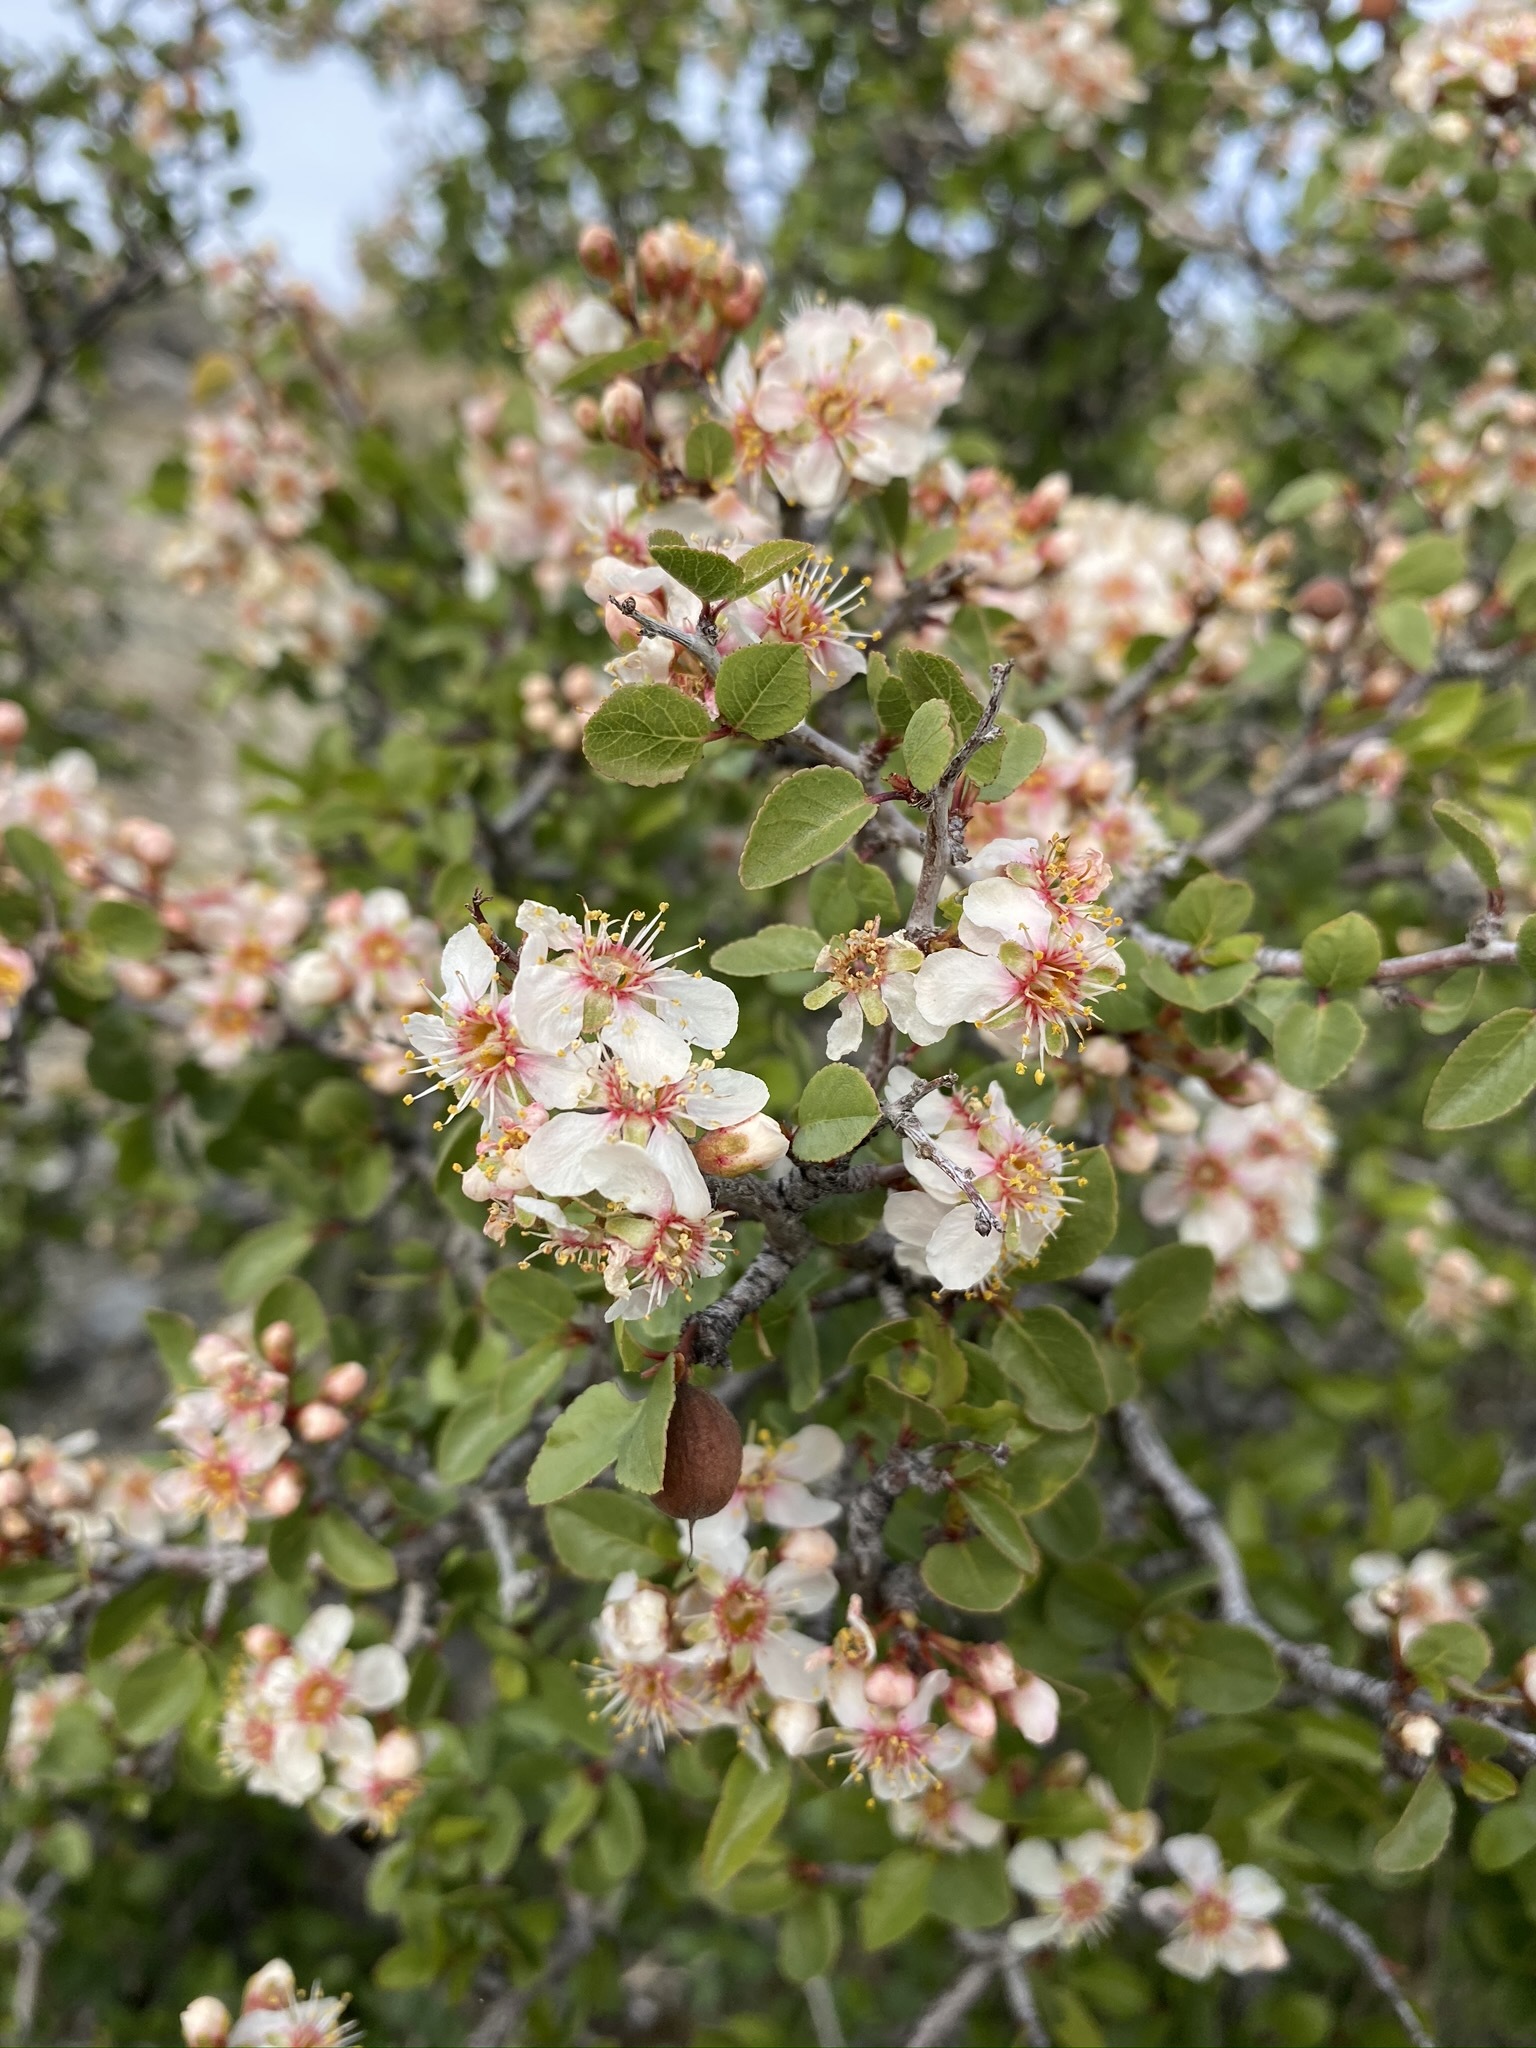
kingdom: Plantae
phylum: Tracheophyta
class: Magnoliopsida
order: Rosales
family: Rosaceae
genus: Prunus
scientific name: Prunus fremontii
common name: Desert apricot
